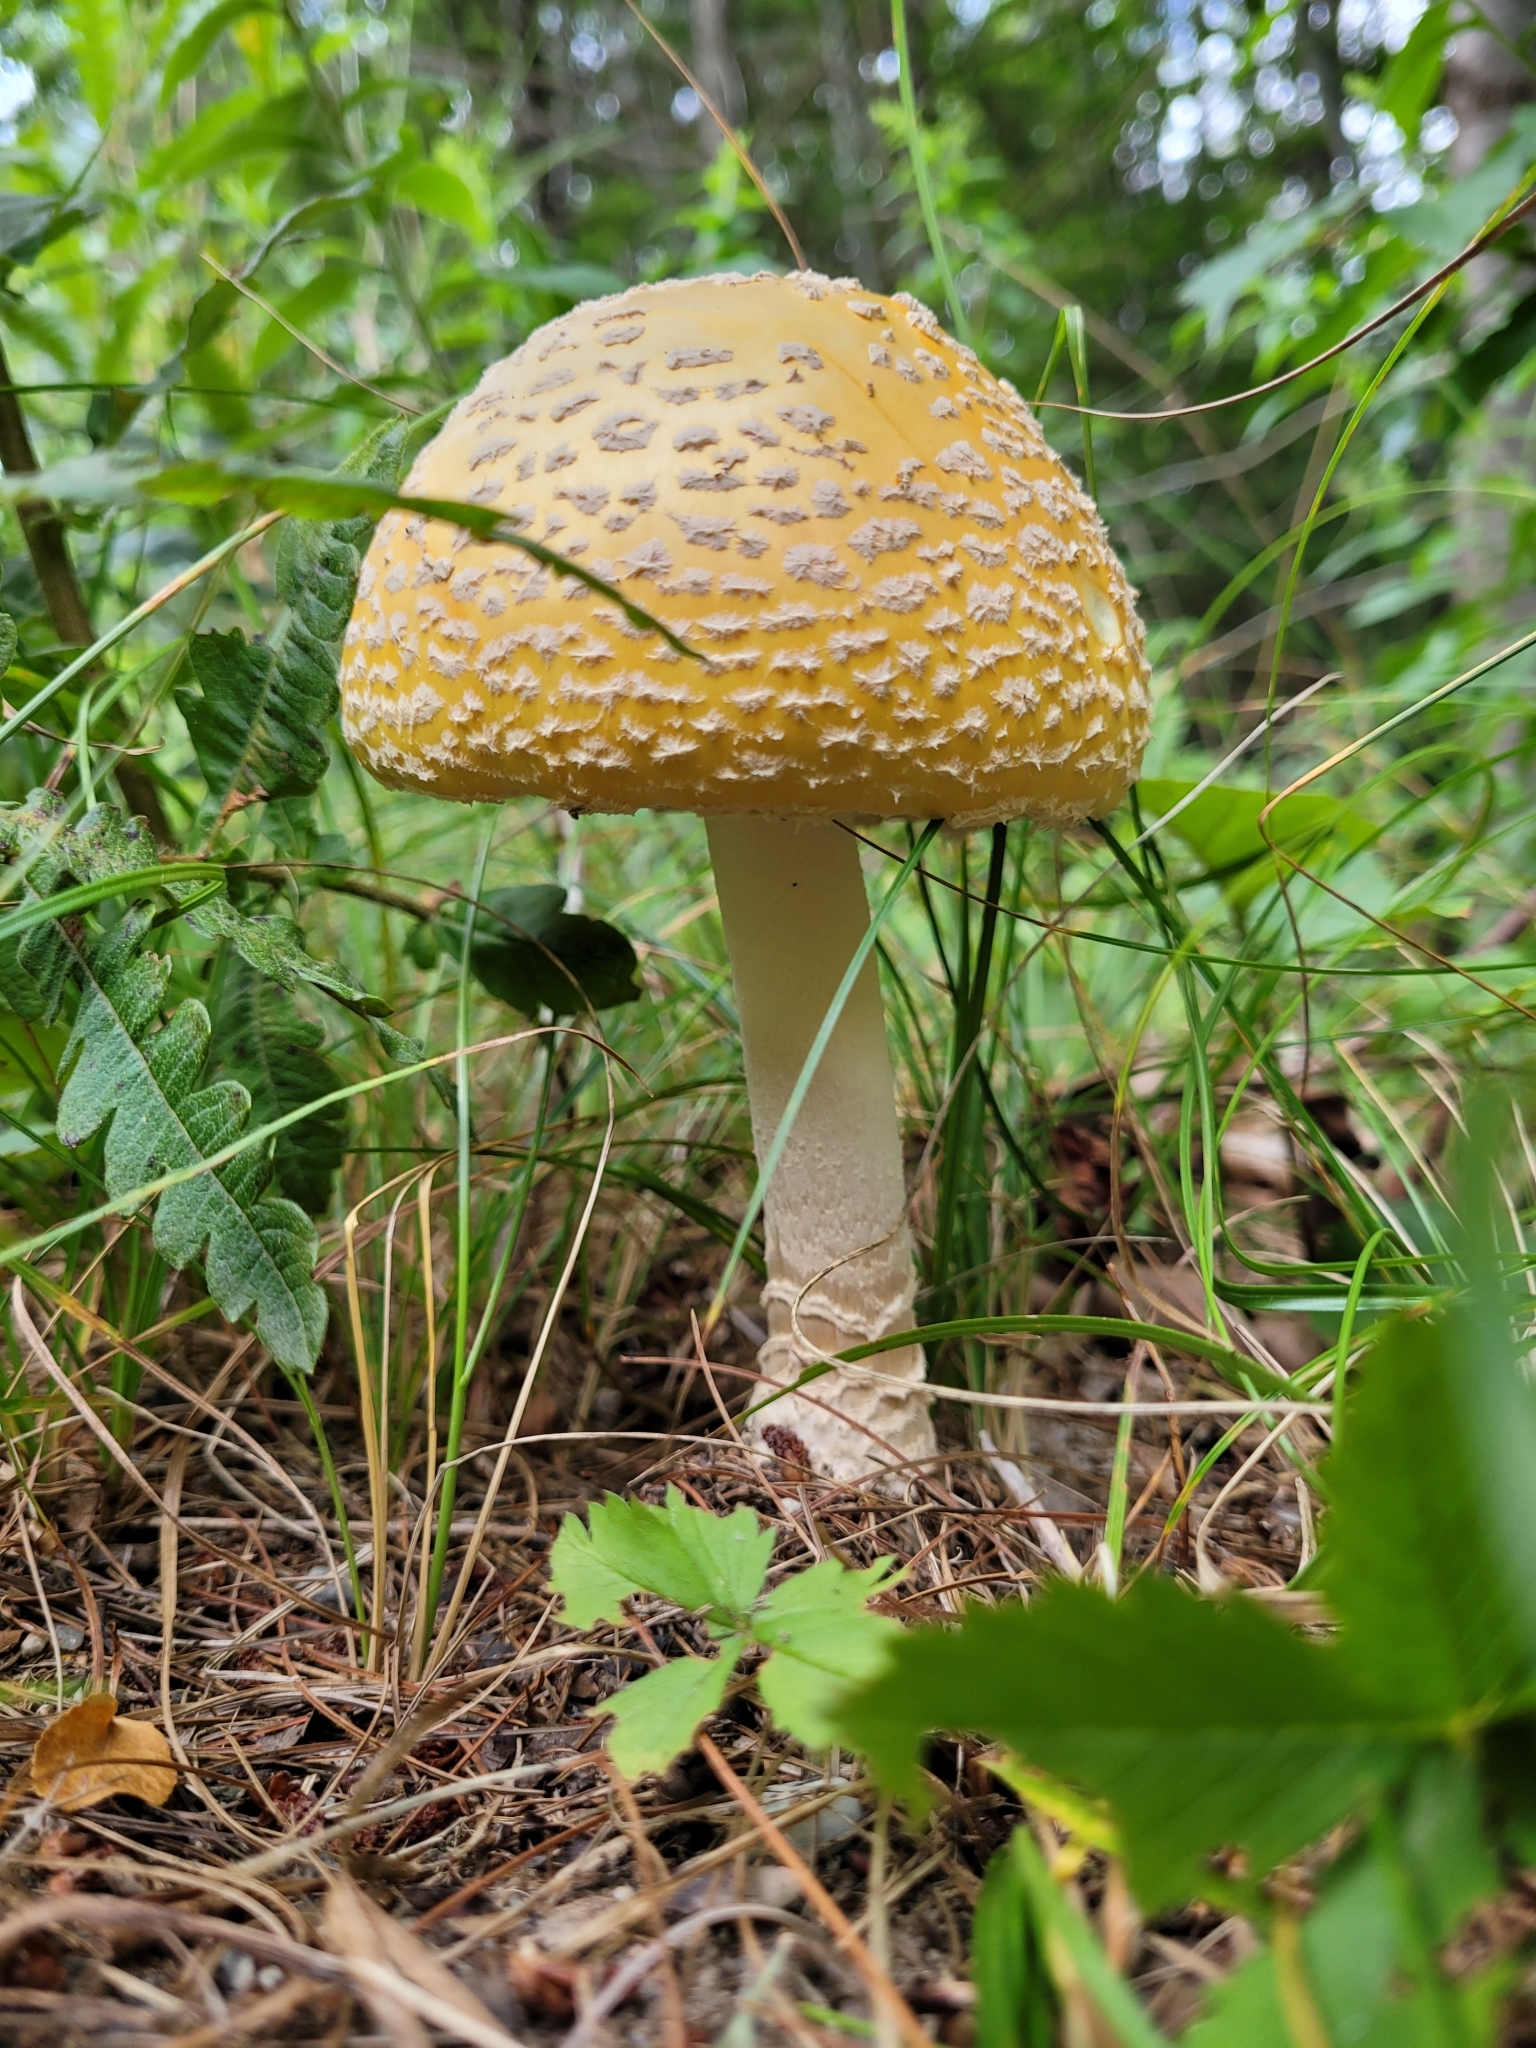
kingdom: Fungi
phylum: Basidiomycota
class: Agaricomycetes
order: Agaricales
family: Amanitaceae
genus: Amanita
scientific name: Amanita muscaria
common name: Fly agaric
